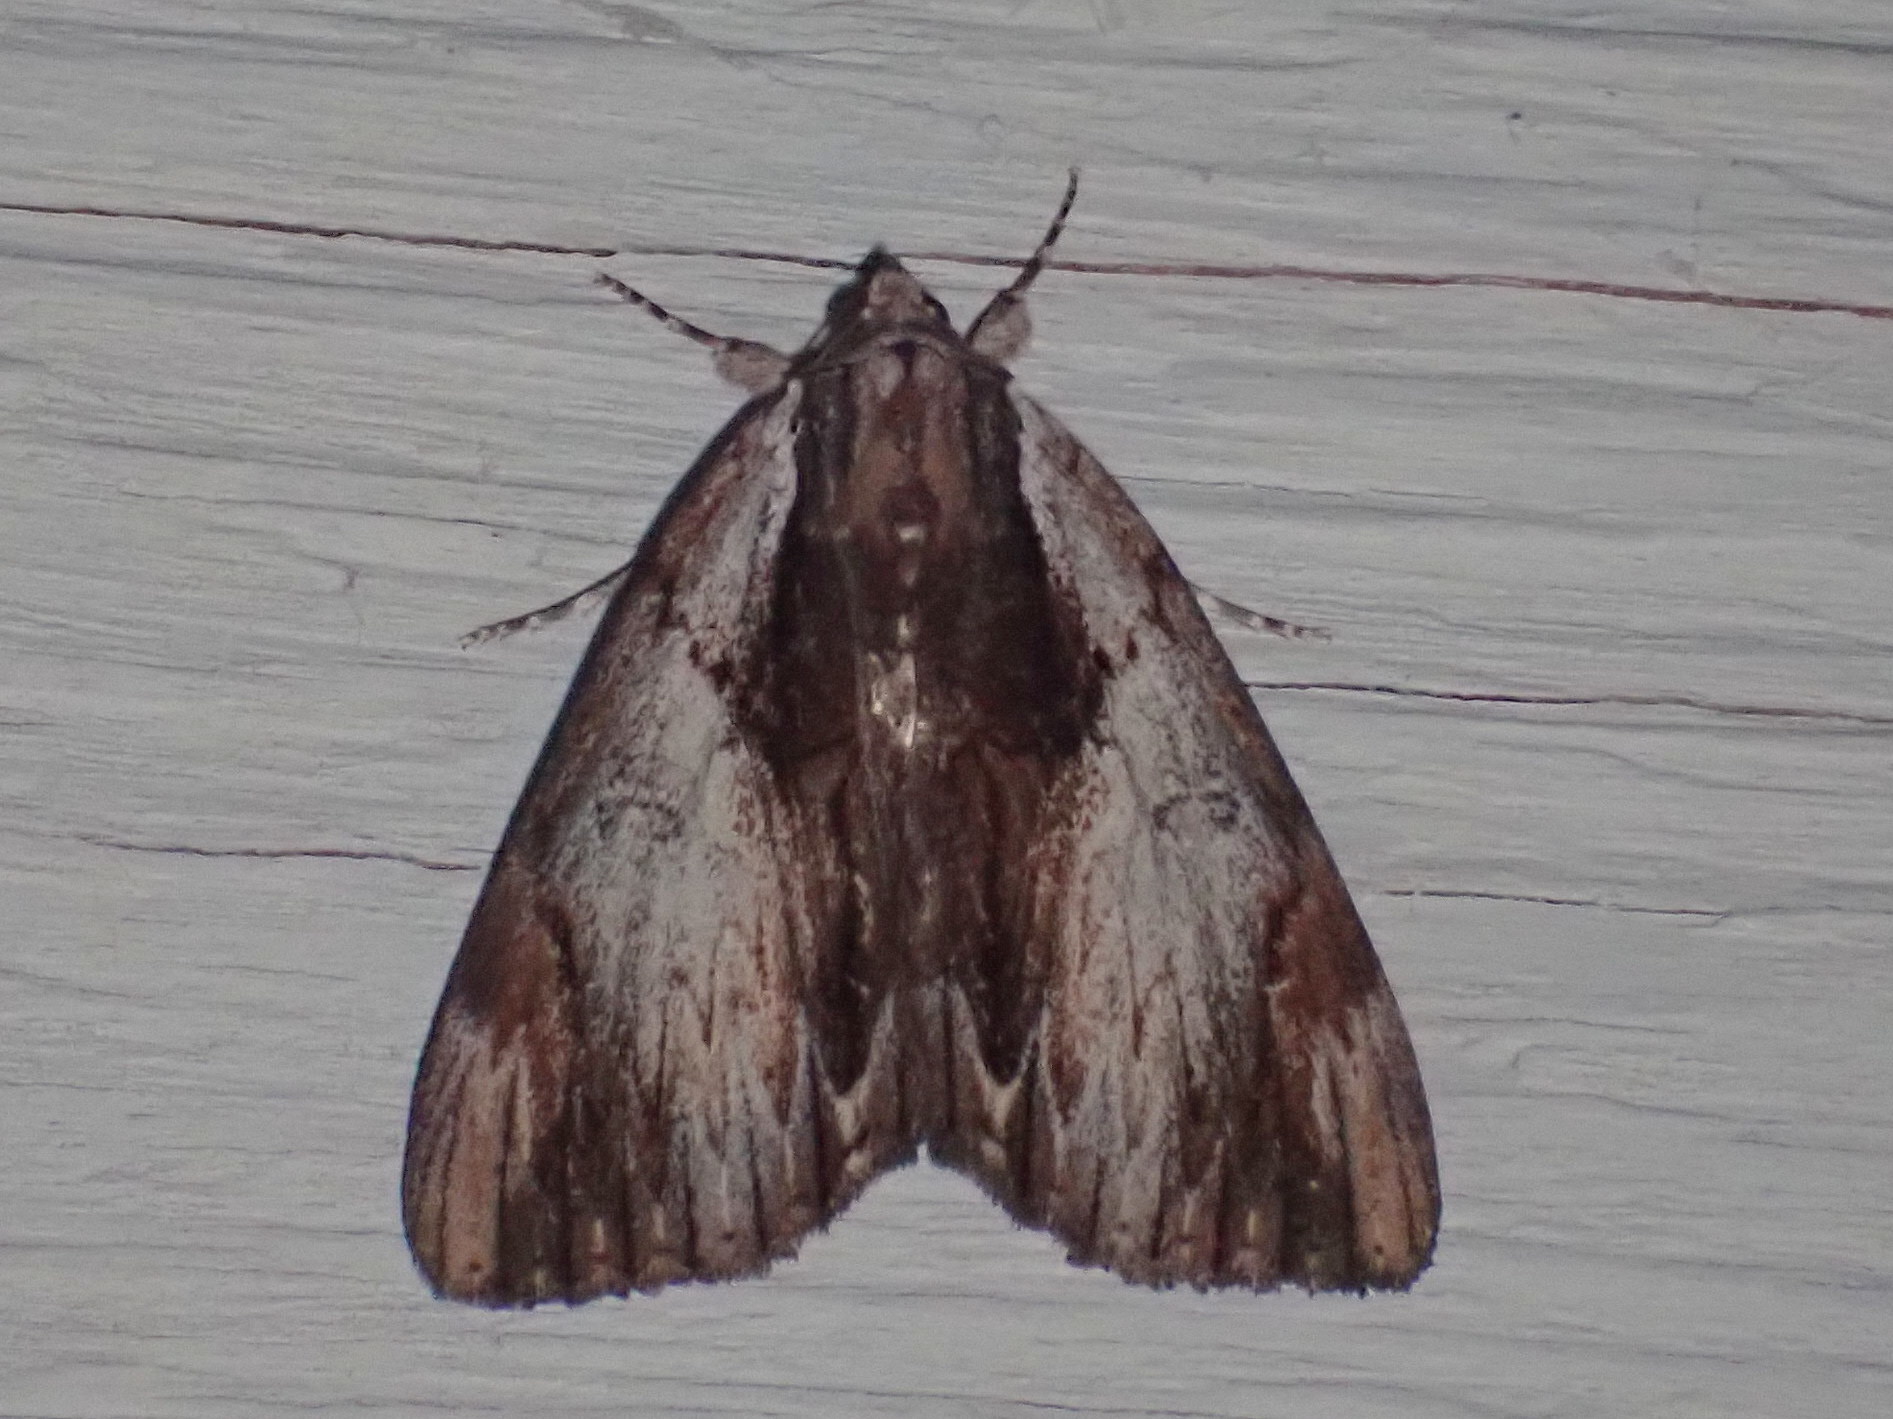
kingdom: Animalia
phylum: Arthropoda
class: Insecta
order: Lepidoptera
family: Erebidae
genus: Catocala
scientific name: Catocala ultronia
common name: Ultronia underwing
